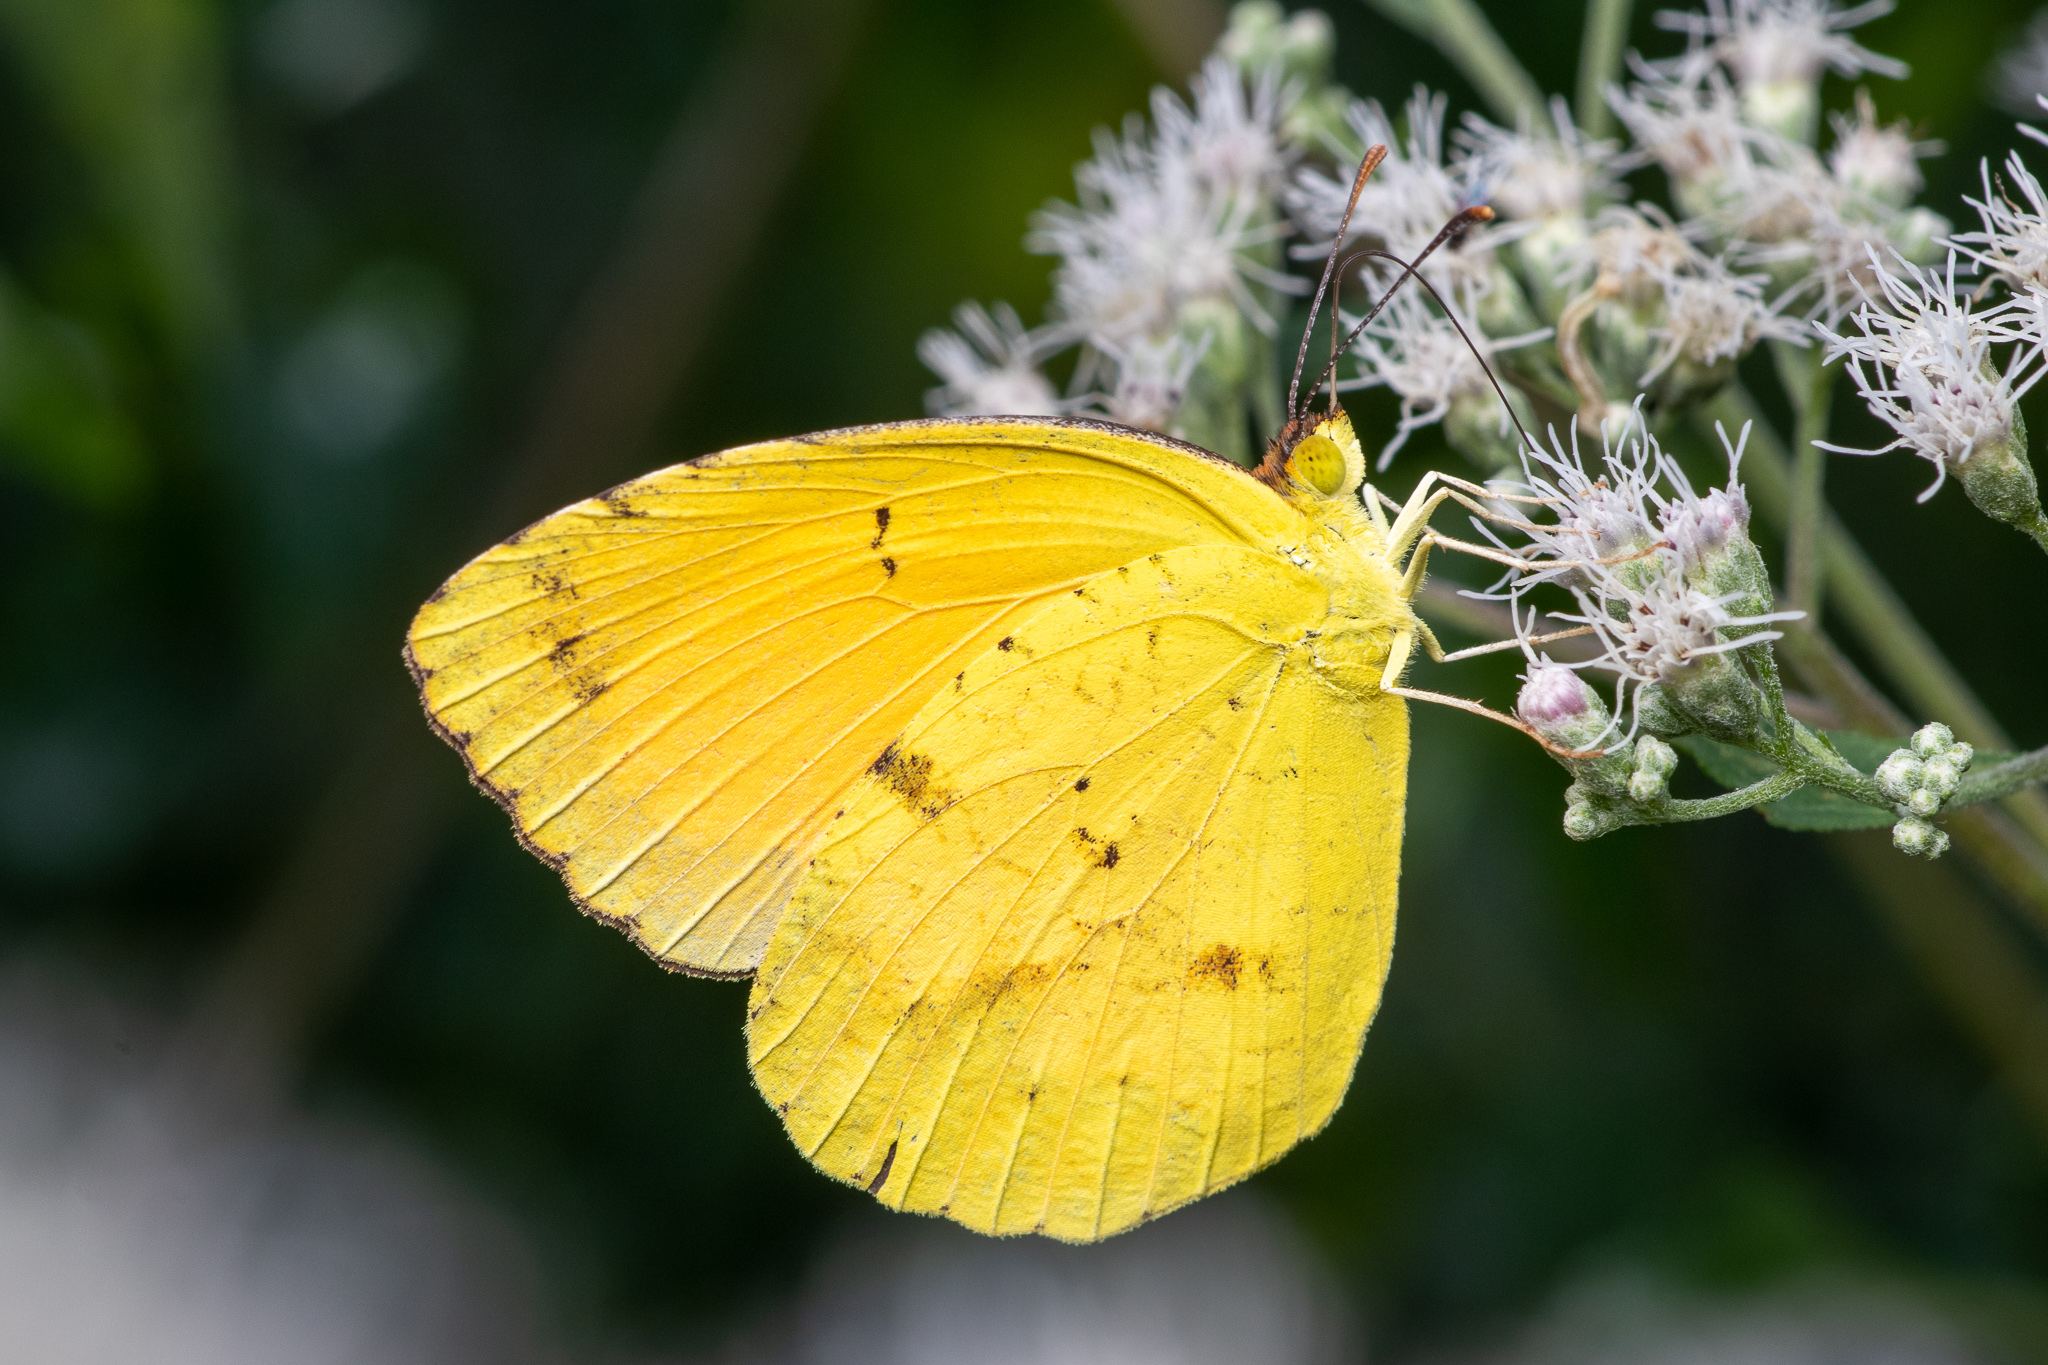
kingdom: Animalia
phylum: Arthropoda
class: Insecta
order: Lepidoptera
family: Pieridae
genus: Abaeis
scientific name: Abaeis nicippe
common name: Sleepy orange
